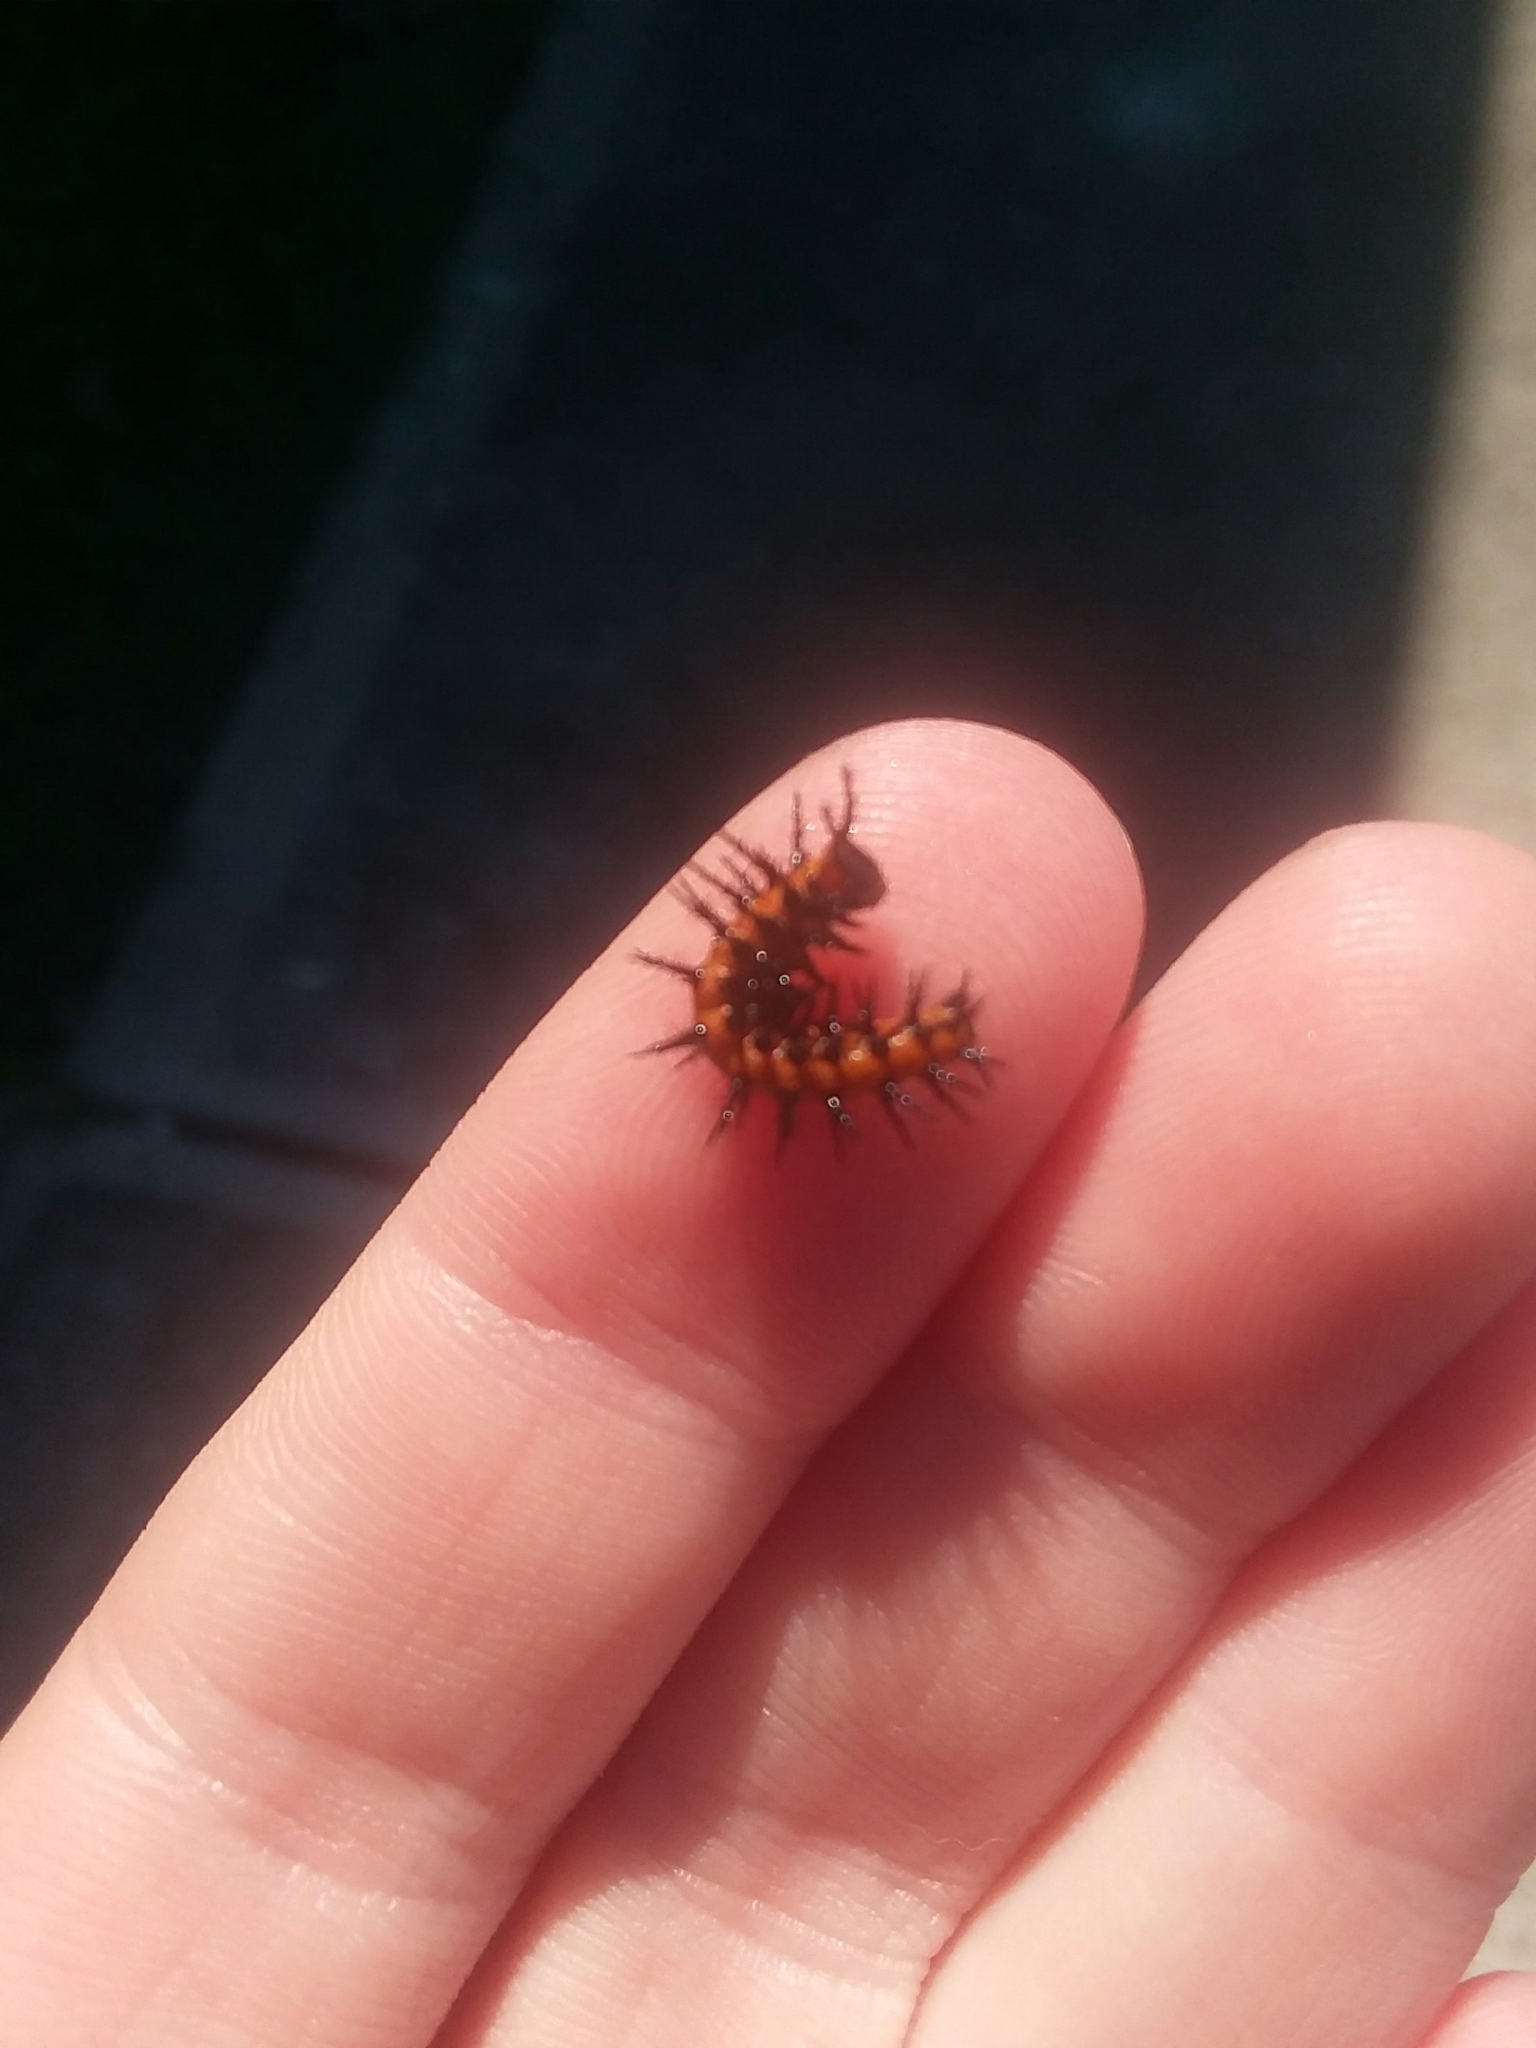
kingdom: Animalia
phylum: Arthropoda
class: Insecta
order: Lepidoptera
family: Nymphalidae
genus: Dione
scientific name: Dione vanillae
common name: Gulf fritillary
